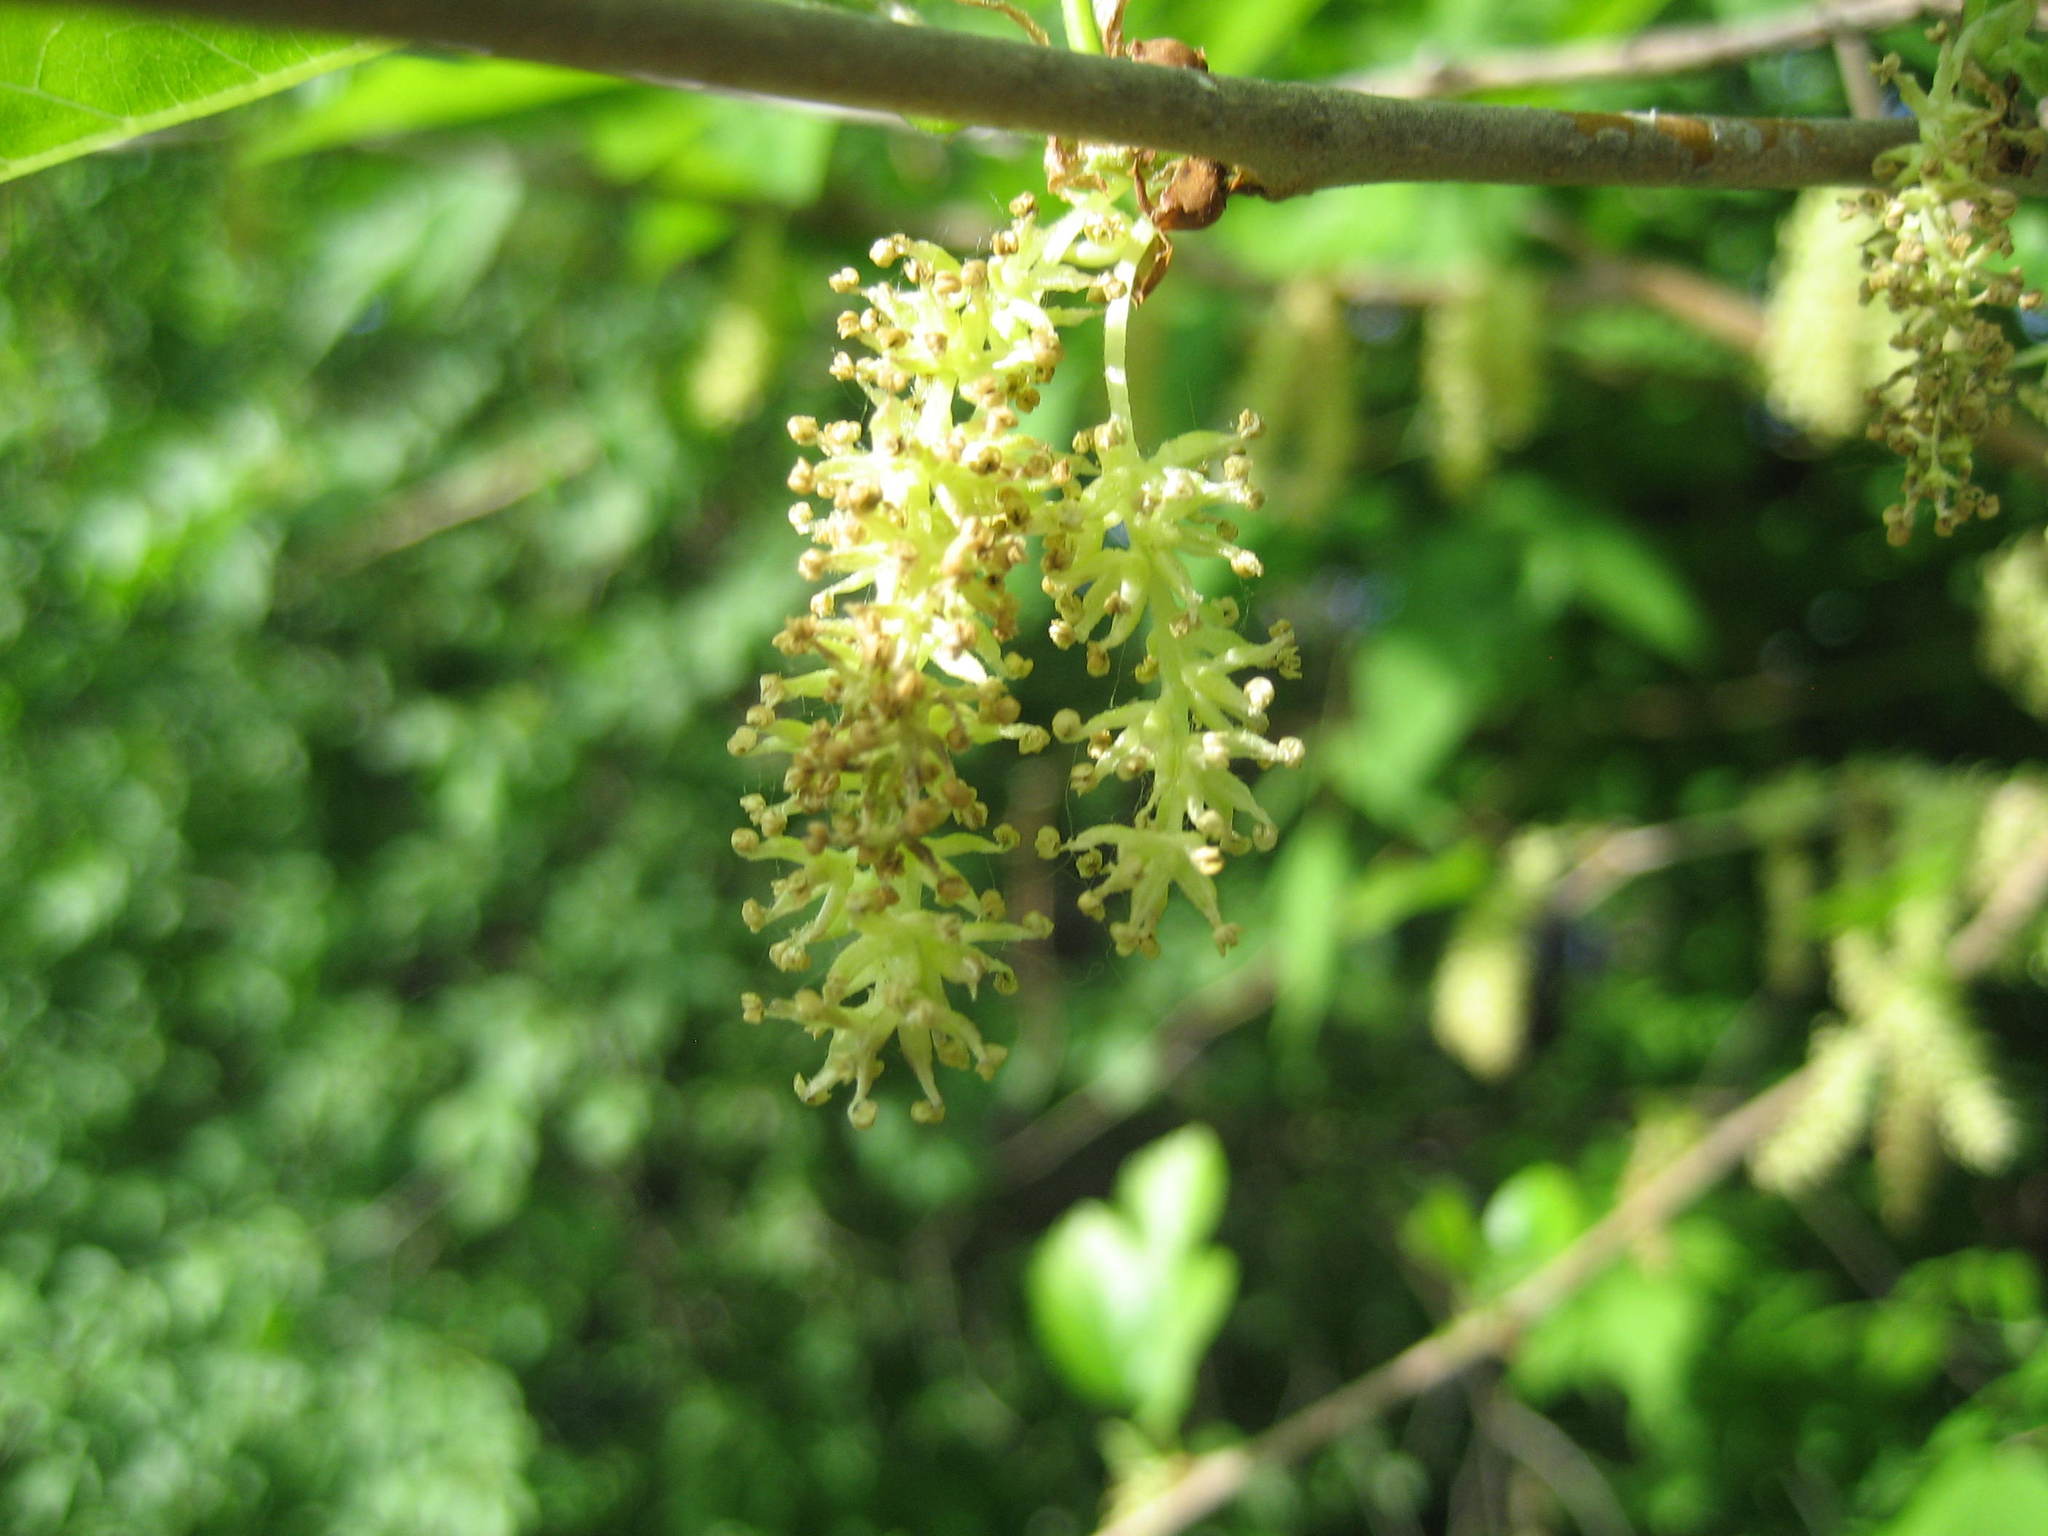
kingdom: Plantae
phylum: Tracheophyta
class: Magnoliopsida
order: Rosales
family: Moraceae
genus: Morus
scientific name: Morus alba
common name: White mulberry
